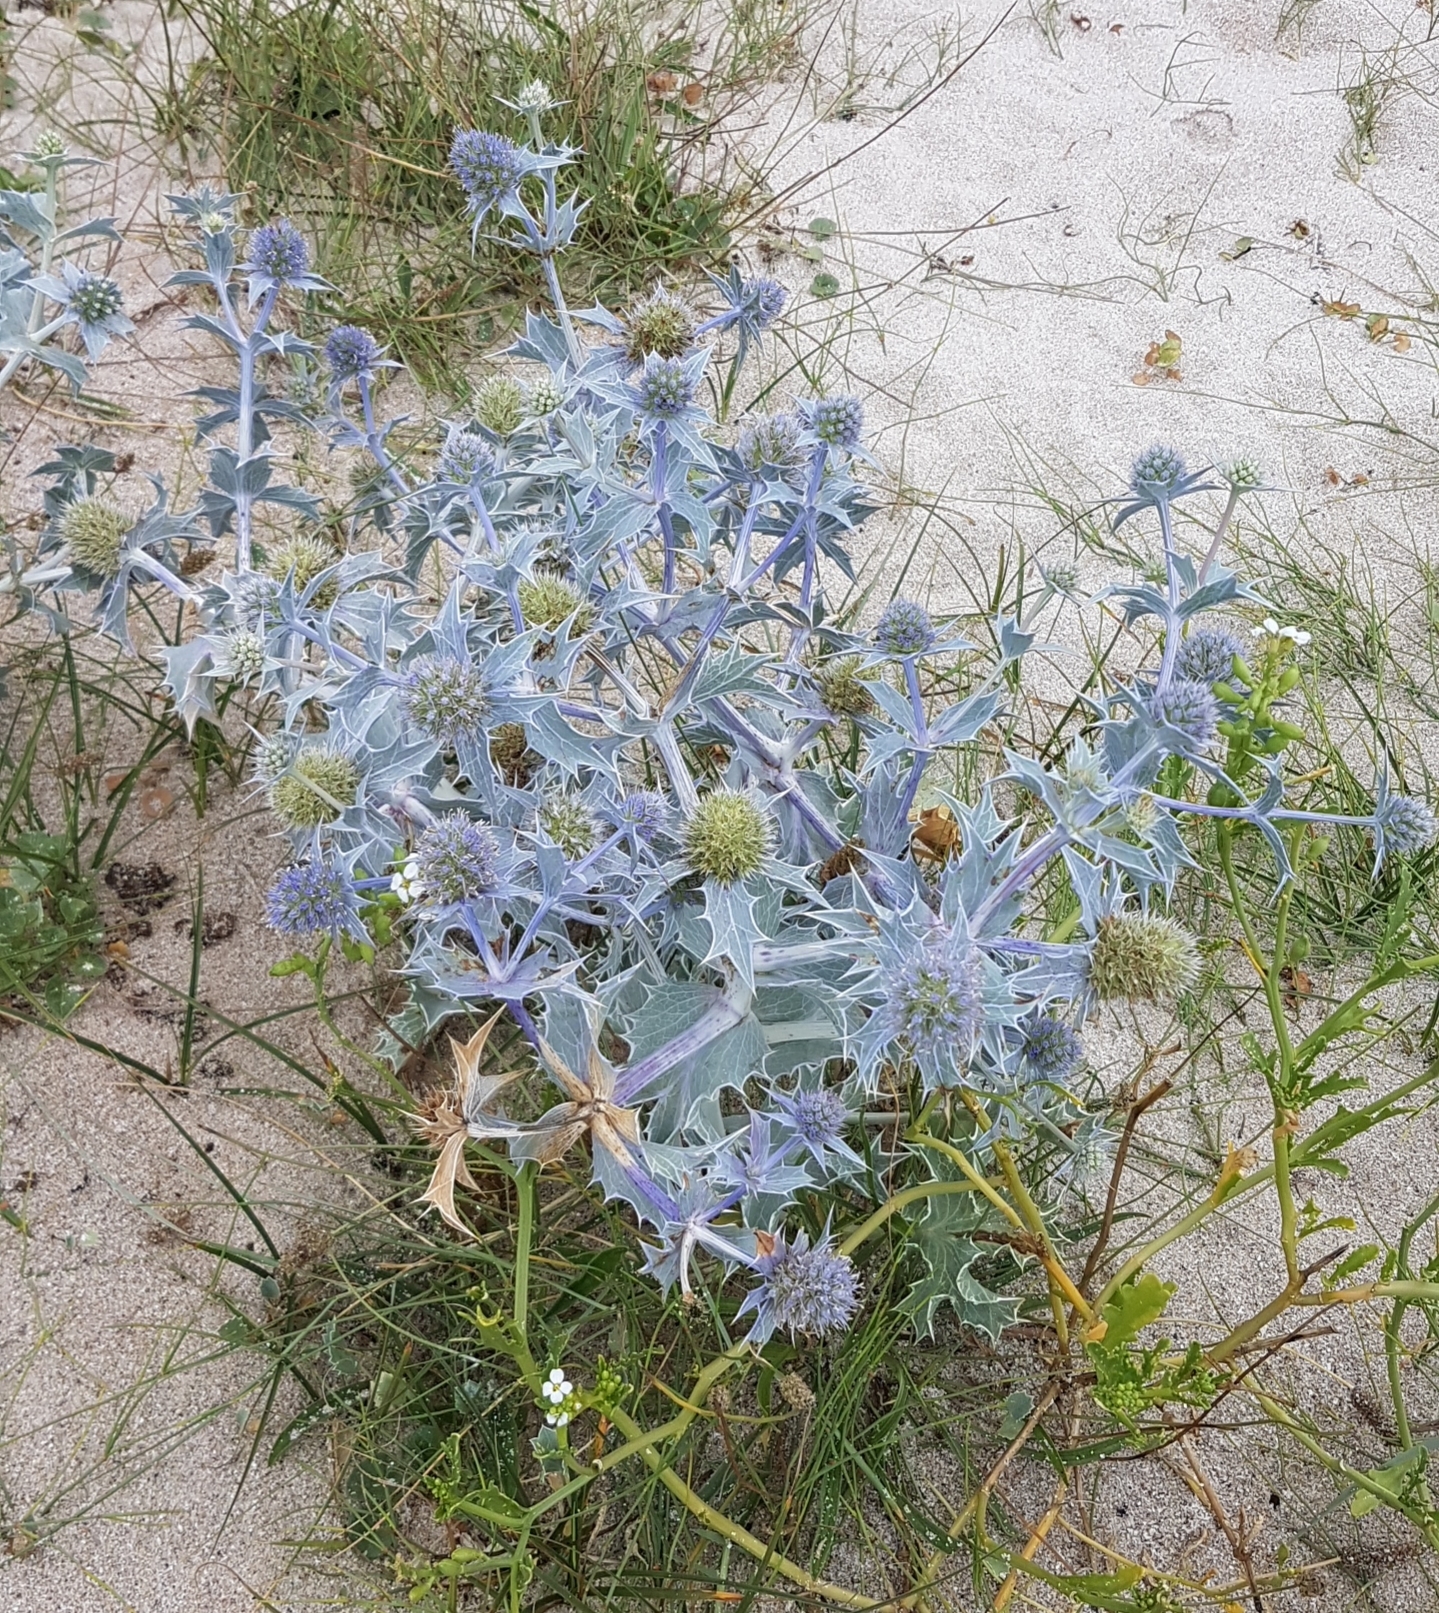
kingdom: Plantae
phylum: Tracheophyta
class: Magnoliopsida
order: Apiales
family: Apiaceae
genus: Eryngium
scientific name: Eryngium maritimum
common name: Sea-holly
